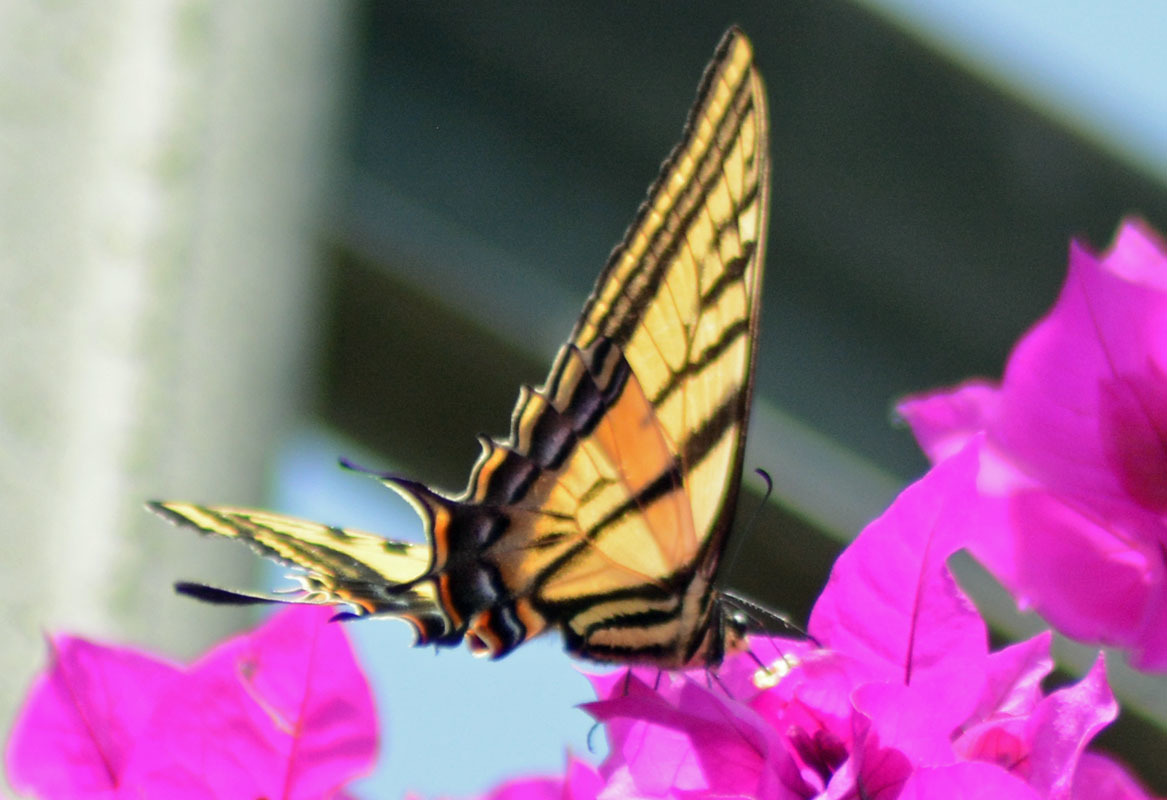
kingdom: Animalia
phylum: Arthropoda
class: Insecta
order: Lepidoptera
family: Papilionidae
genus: Papilio
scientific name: Papilio multicaudata
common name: Two-tailed tiger swallowtail
